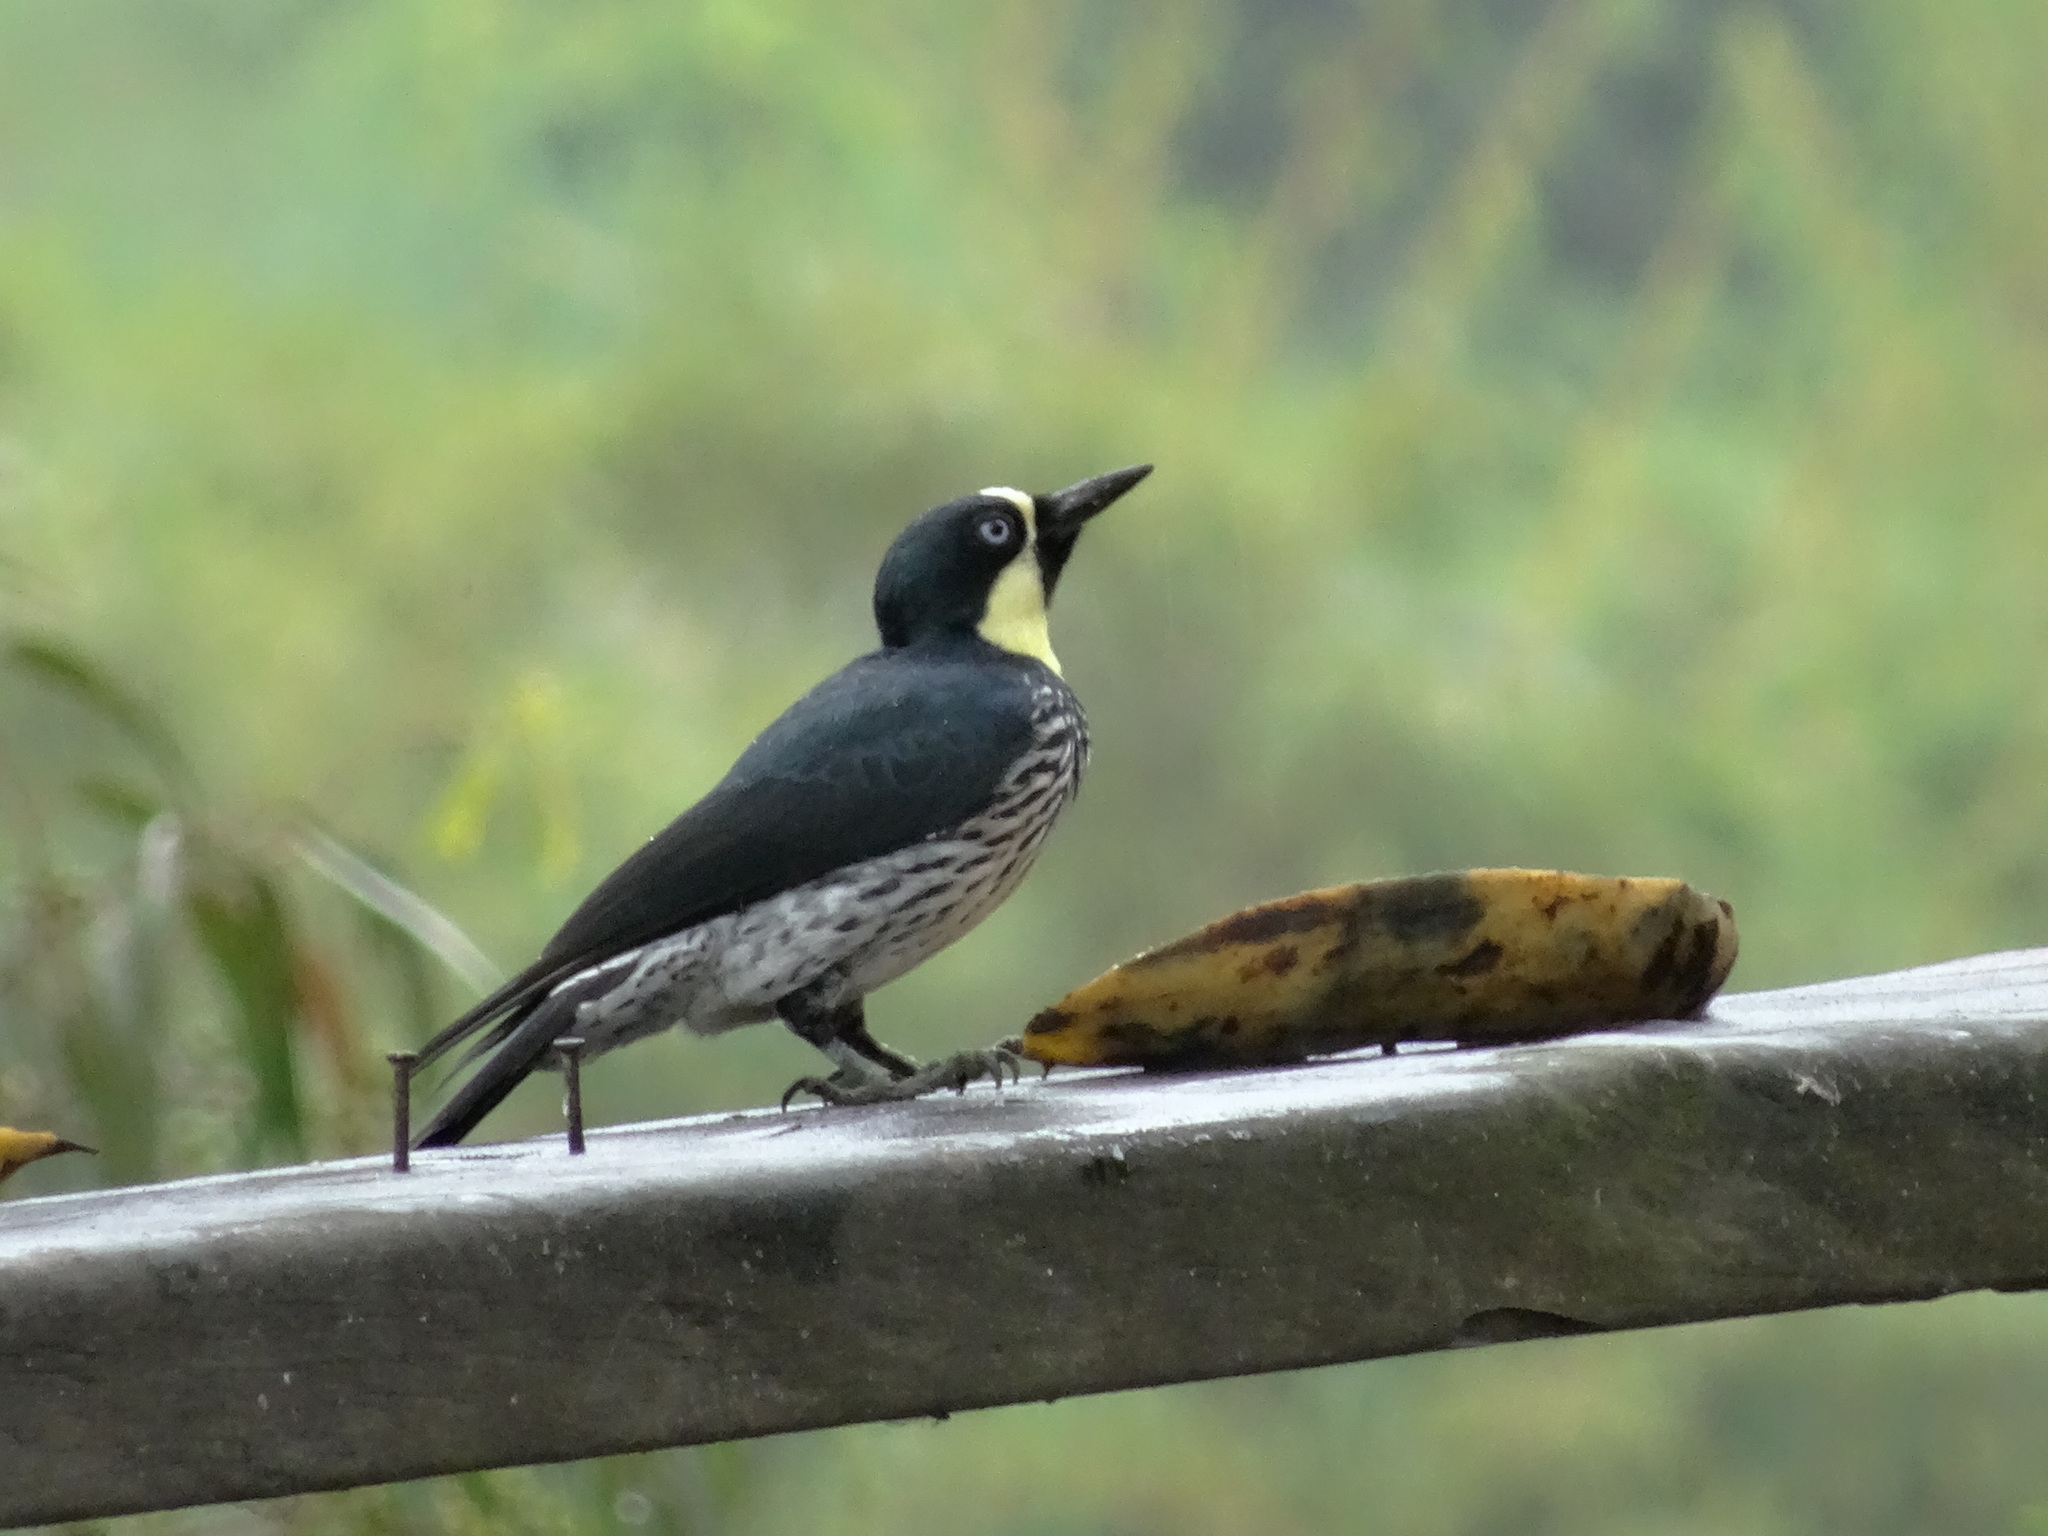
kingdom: Animalia
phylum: Chordata
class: Aves
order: Piciformes
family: Picidae
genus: Melanerpes
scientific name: Melanerpes formicivorus
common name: Acorn woodpecker
